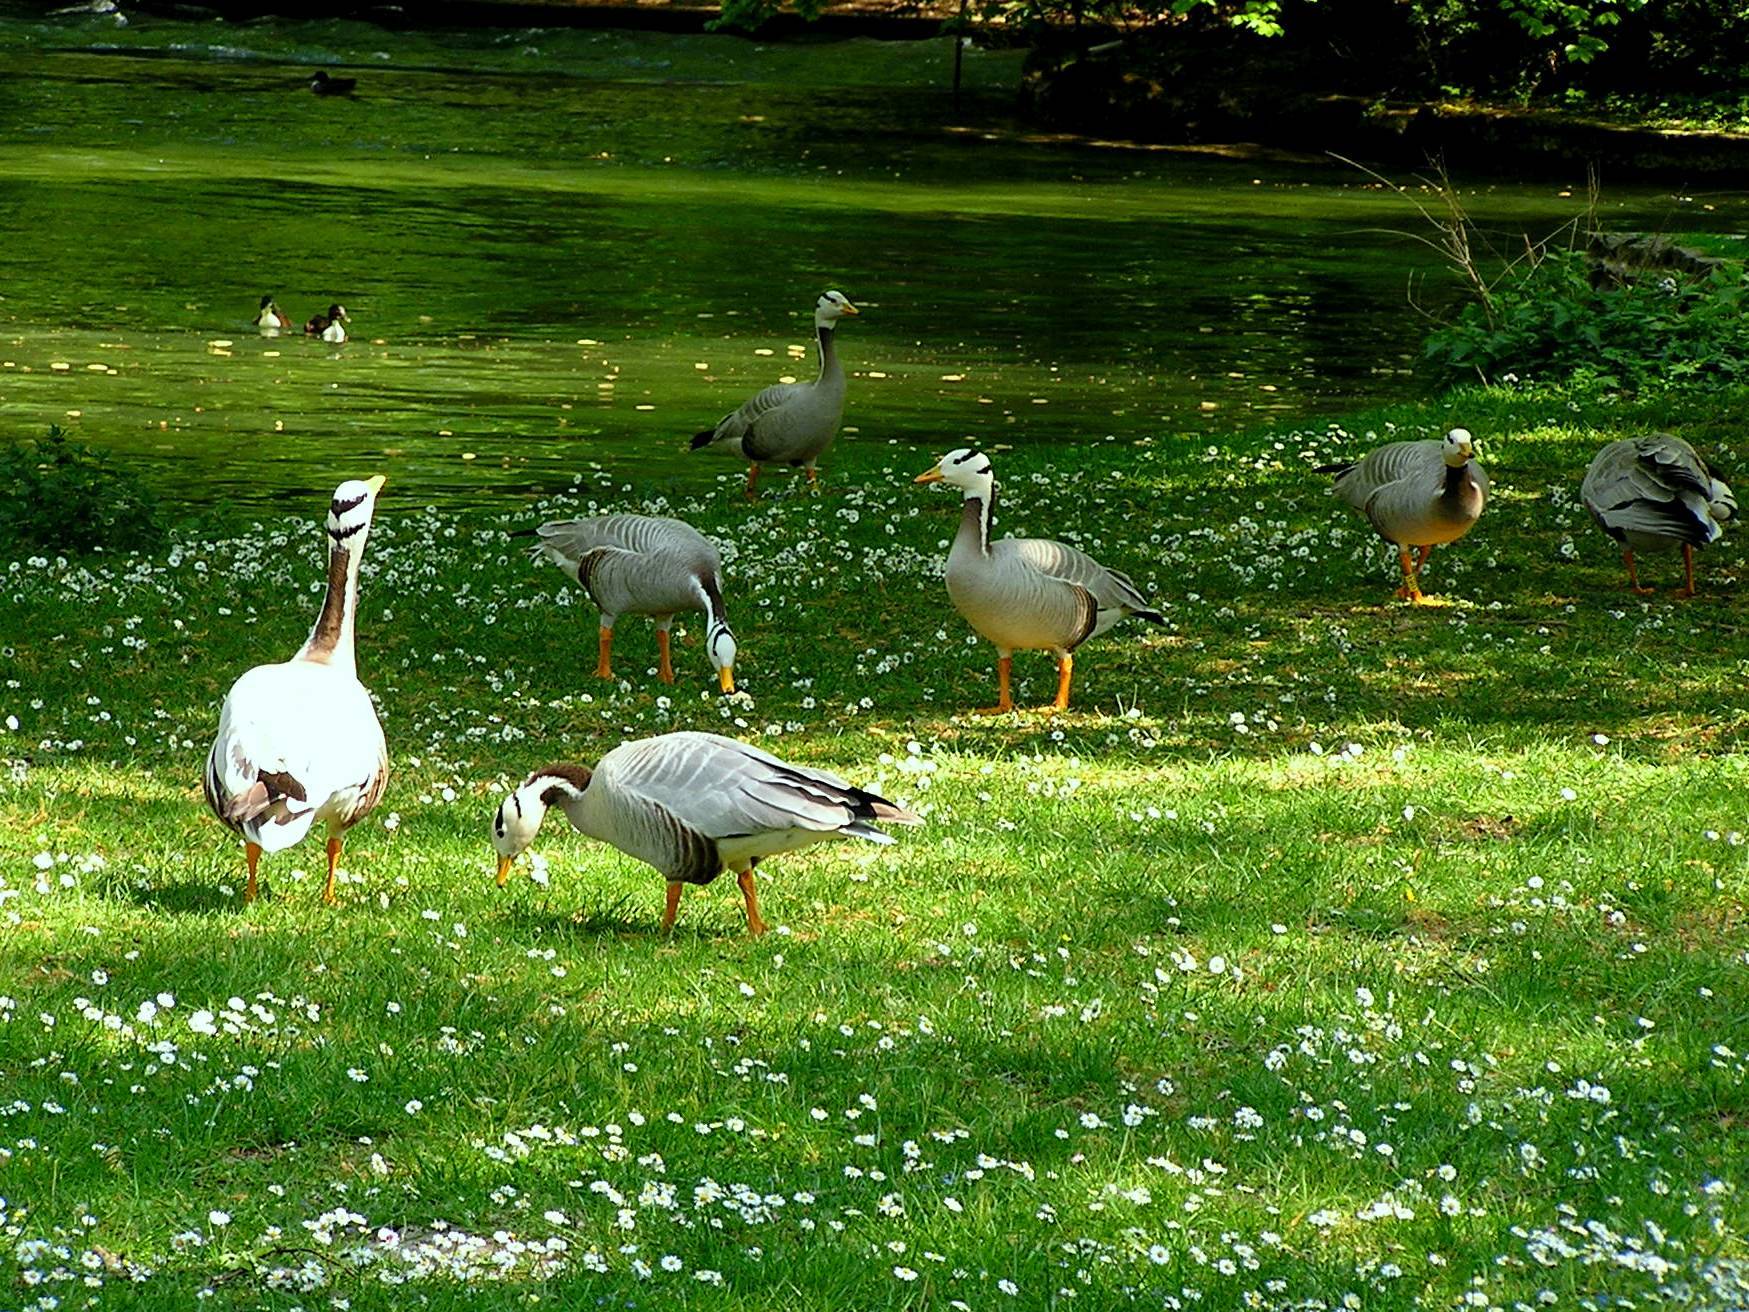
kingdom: Animalia
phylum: Chordata
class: Aves
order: Anseriformes
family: Anatidae
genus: Anser
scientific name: Anser indicus
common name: Bar-headed goose
